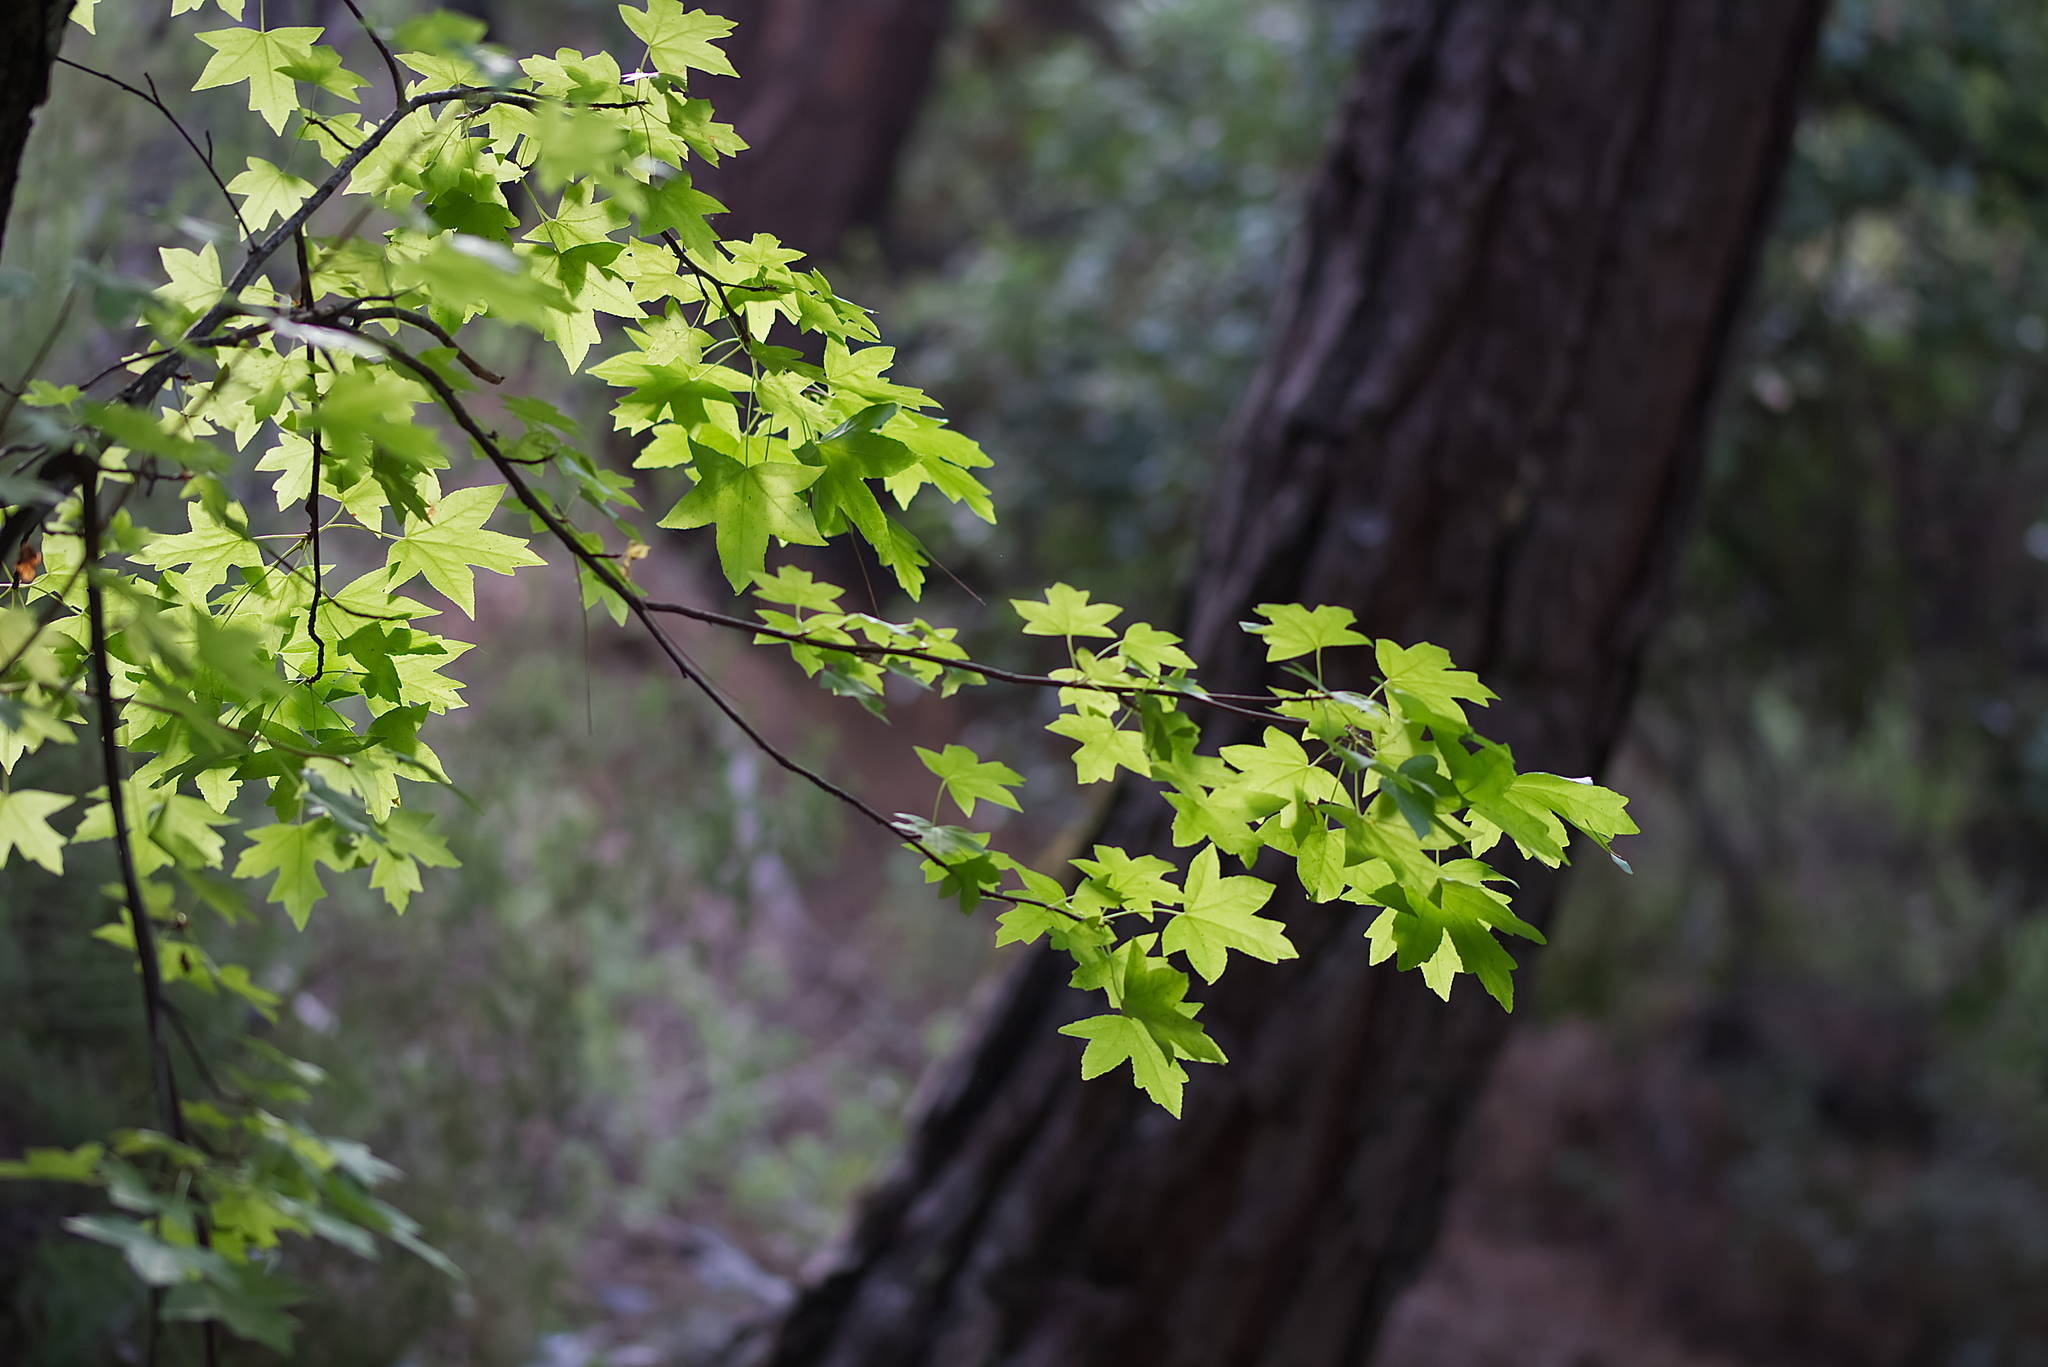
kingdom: Plantae
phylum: Tracheophyta
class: Magnoliopsida
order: Saxifragales
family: Altingiaceae
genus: Liquidambar
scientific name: Liquidambar orientalis
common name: Oriental sweetgum
